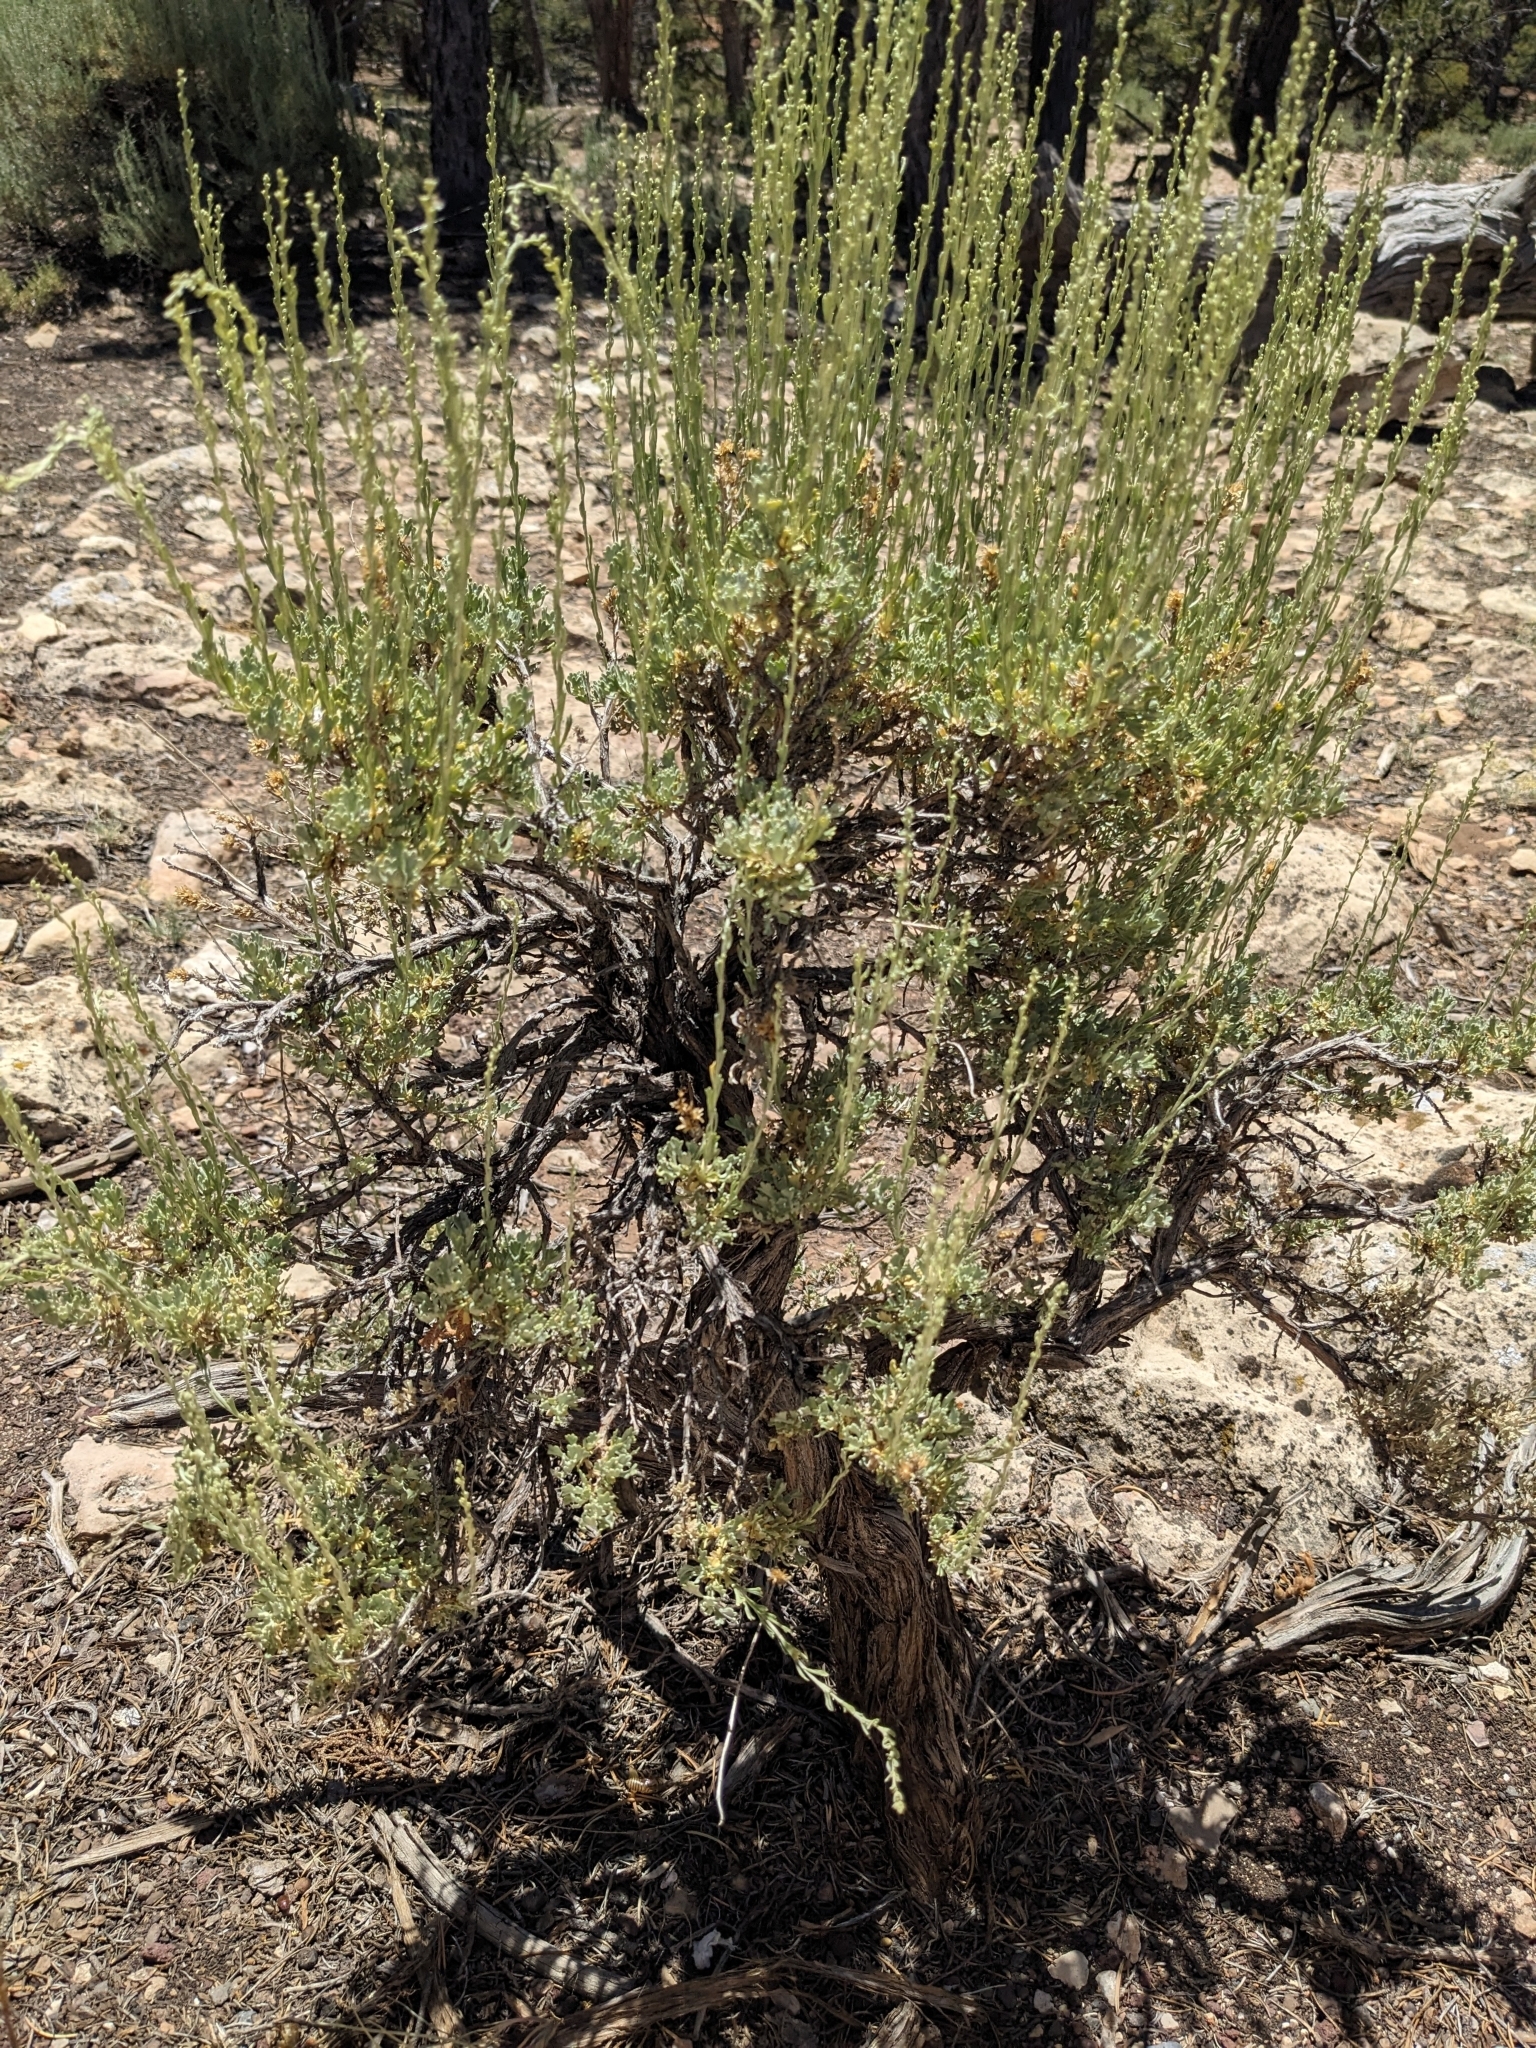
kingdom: Plantae
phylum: Tracheophyta
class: Magnoliopsida
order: Asterales
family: Asteraceae
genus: Artemisia
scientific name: Artemisia nova
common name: Black-sage
